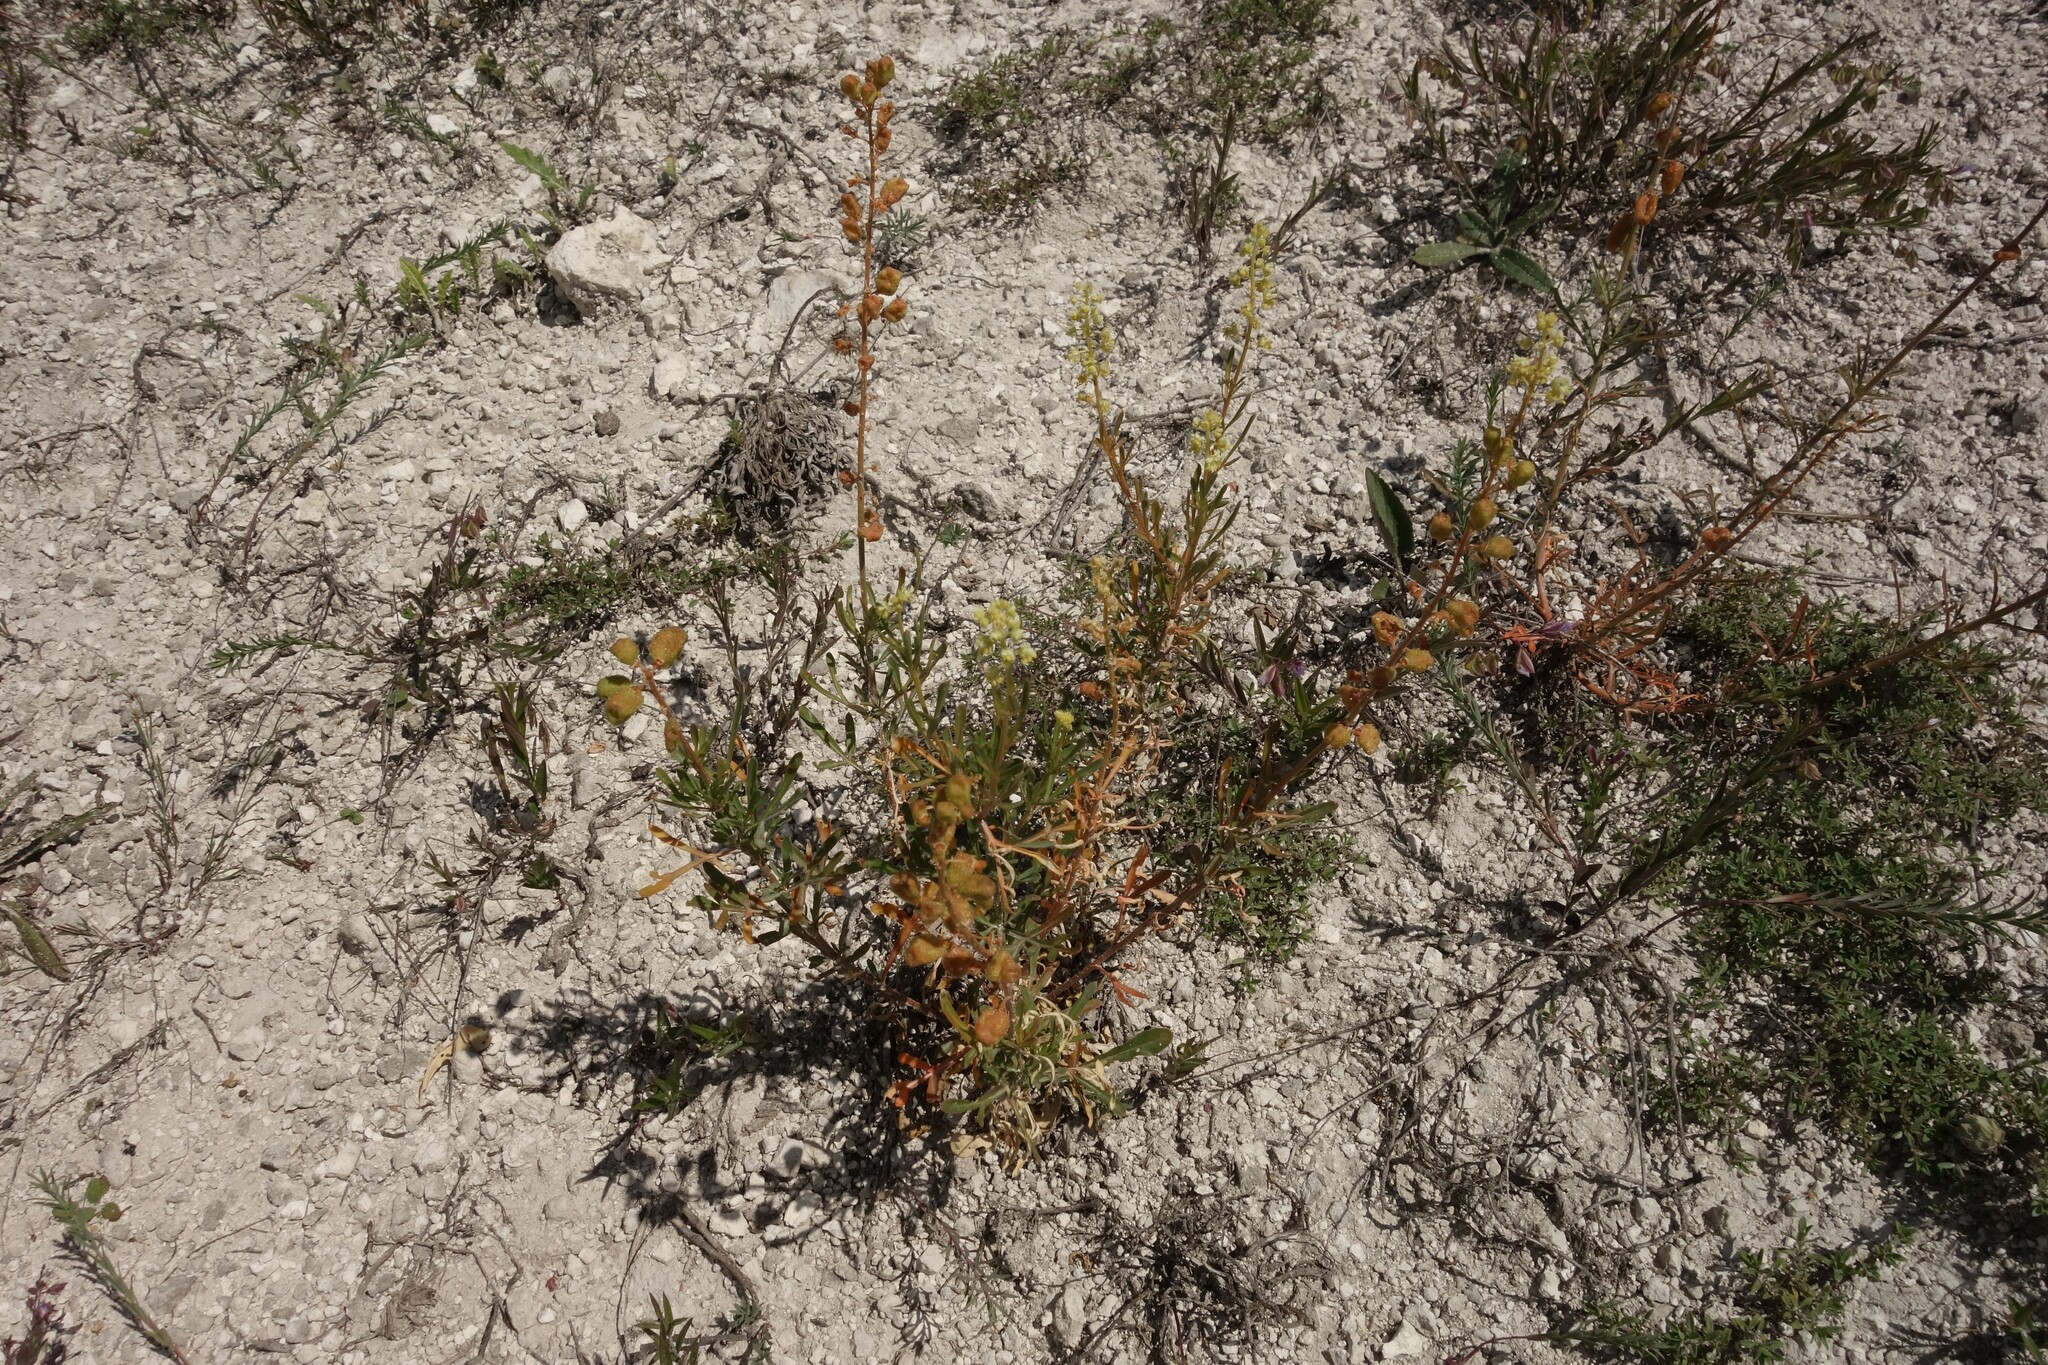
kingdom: Plantae
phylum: Tracheophyta
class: Magnoliopsida
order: Brassicales
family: Resedaceae
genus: Reseda
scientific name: Reseda lutea
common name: Wild mignonette
